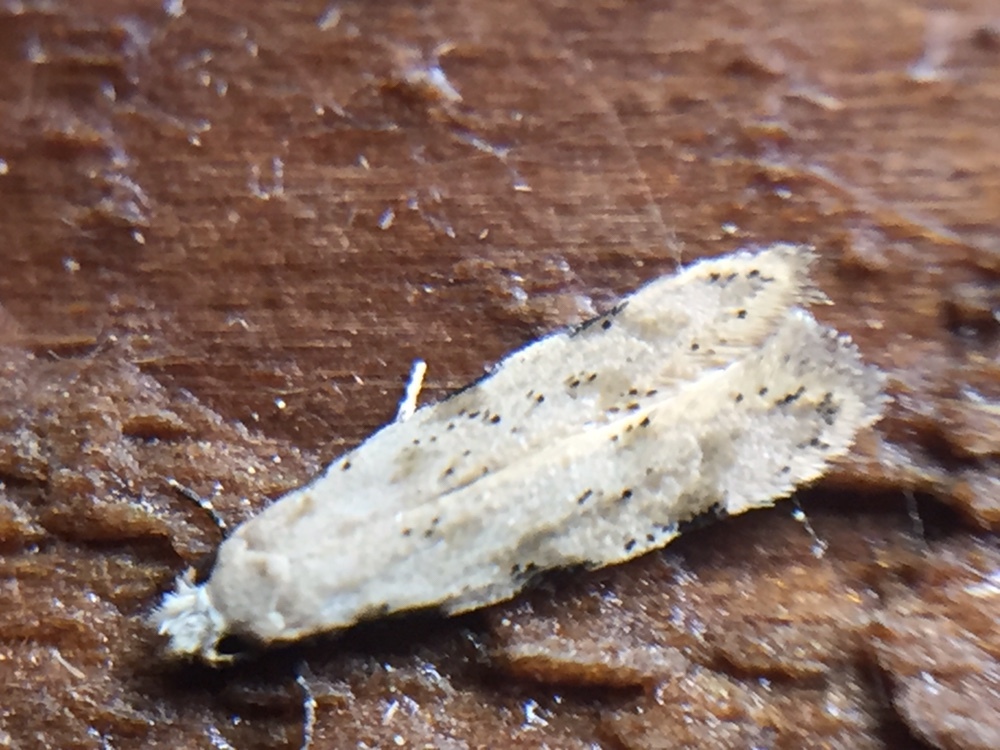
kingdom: Animalia
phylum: Arthropoda
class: Insecta
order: Lepidoptera
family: Tineidae
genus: Endophthora
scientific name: Endophthora omogramma
